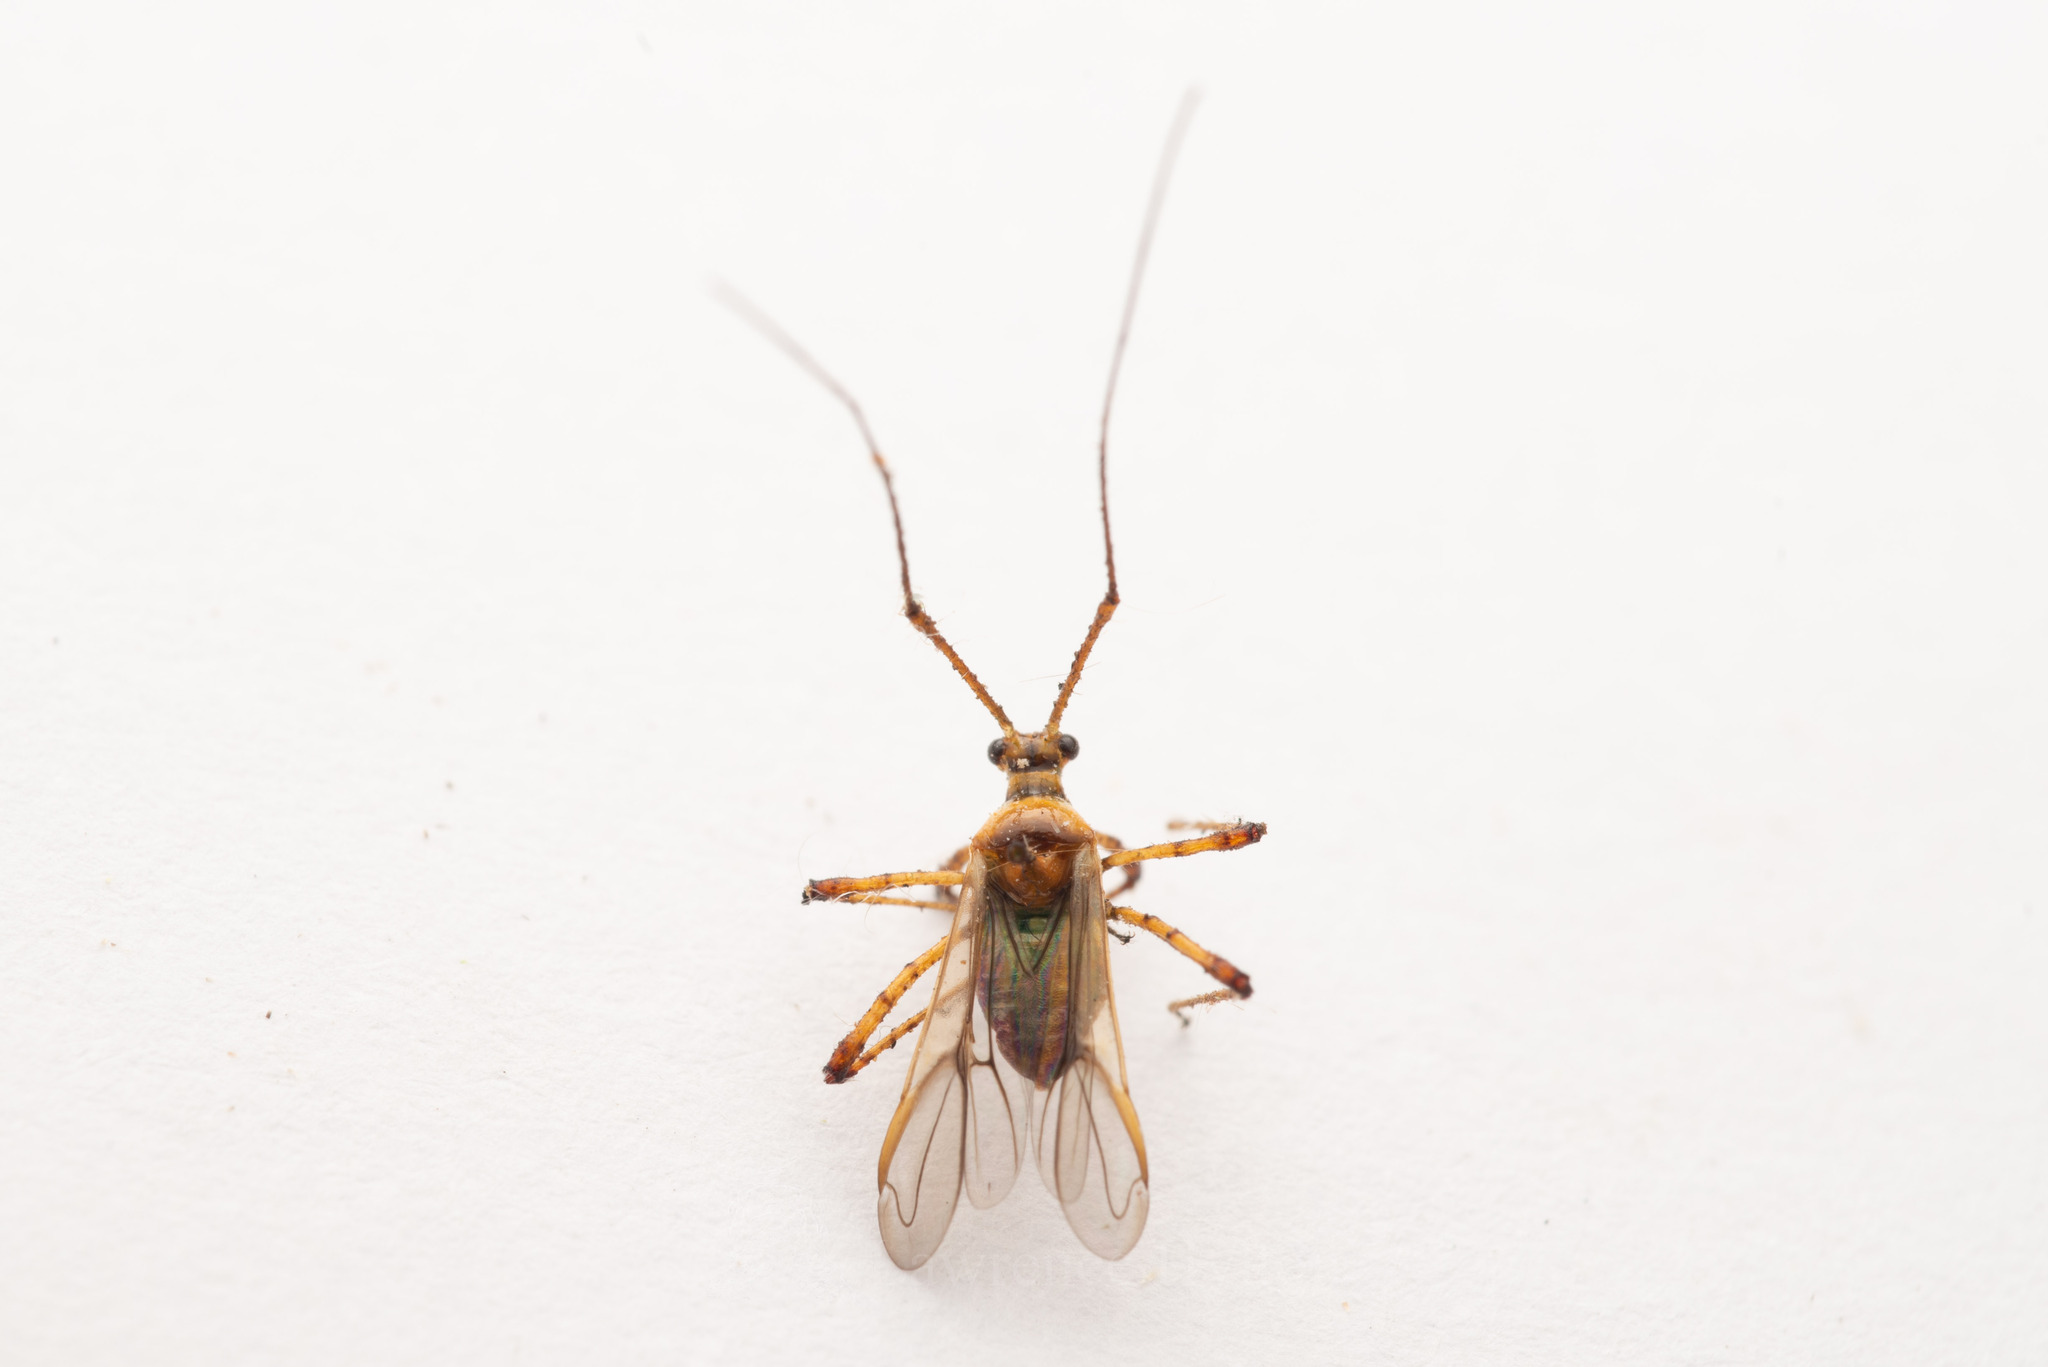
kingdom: Animalia
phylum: Arthropoda
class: Insecta
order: Hemiptera
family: Miridae
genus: Helopeltis
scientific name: Helopeltis theivora
